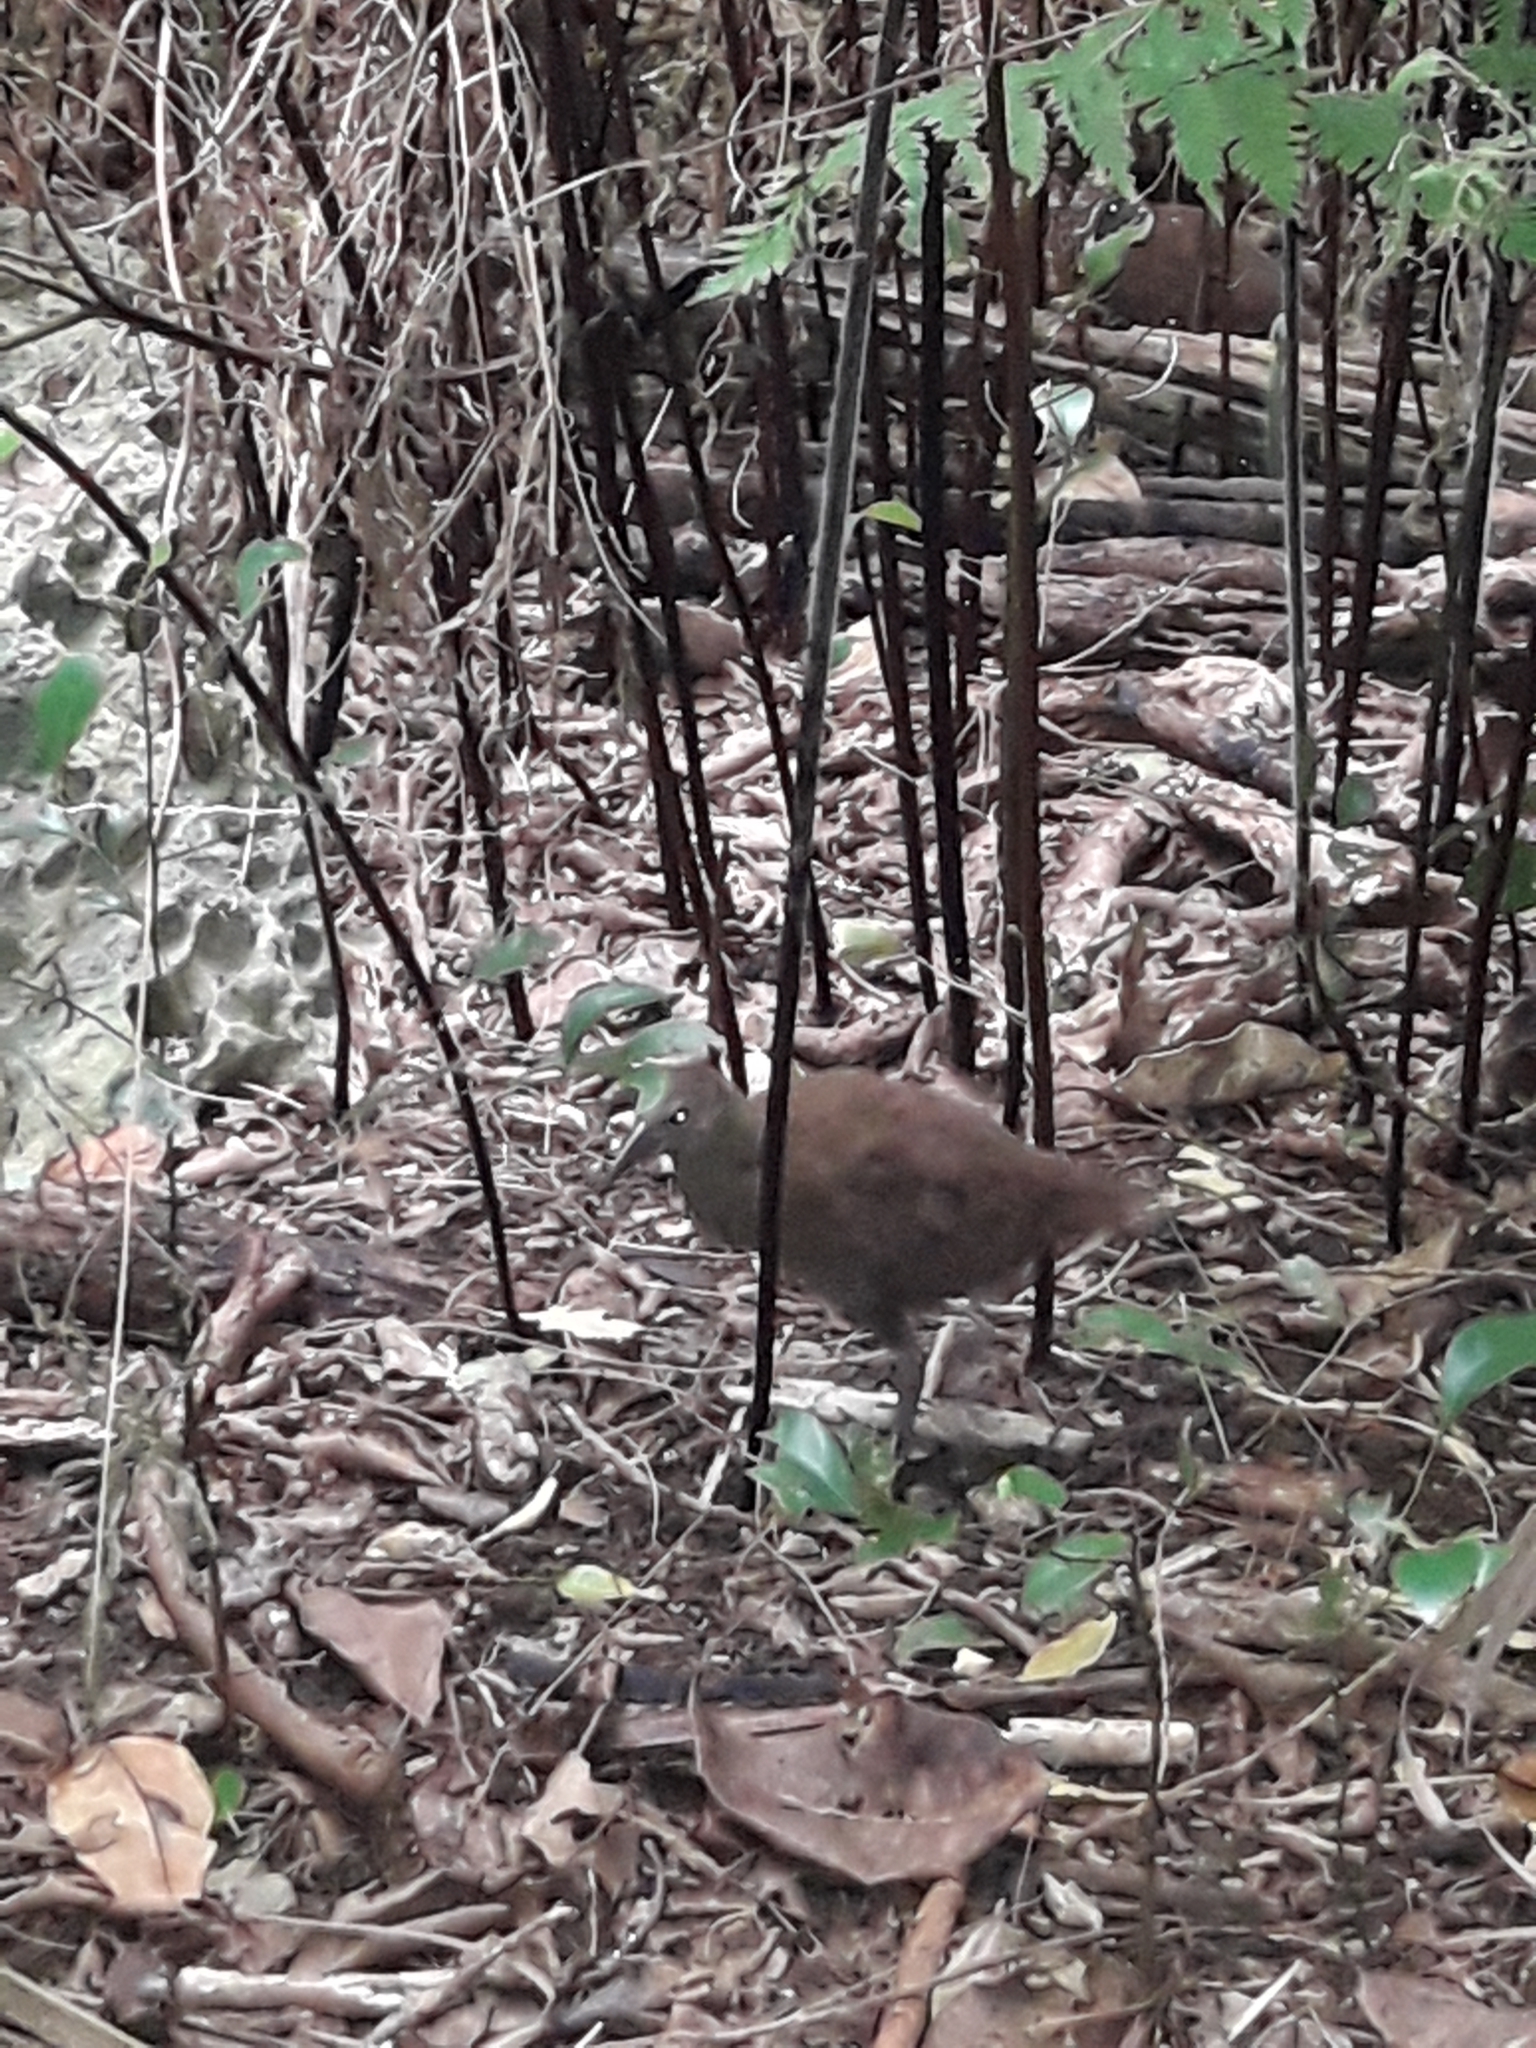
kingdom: Animalia
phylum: Chordata
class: Aves
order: Gruiformes
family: Rallidae
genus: Gallirallus
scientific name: Gallirallus sylvestris
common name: Lord howe woodhen
